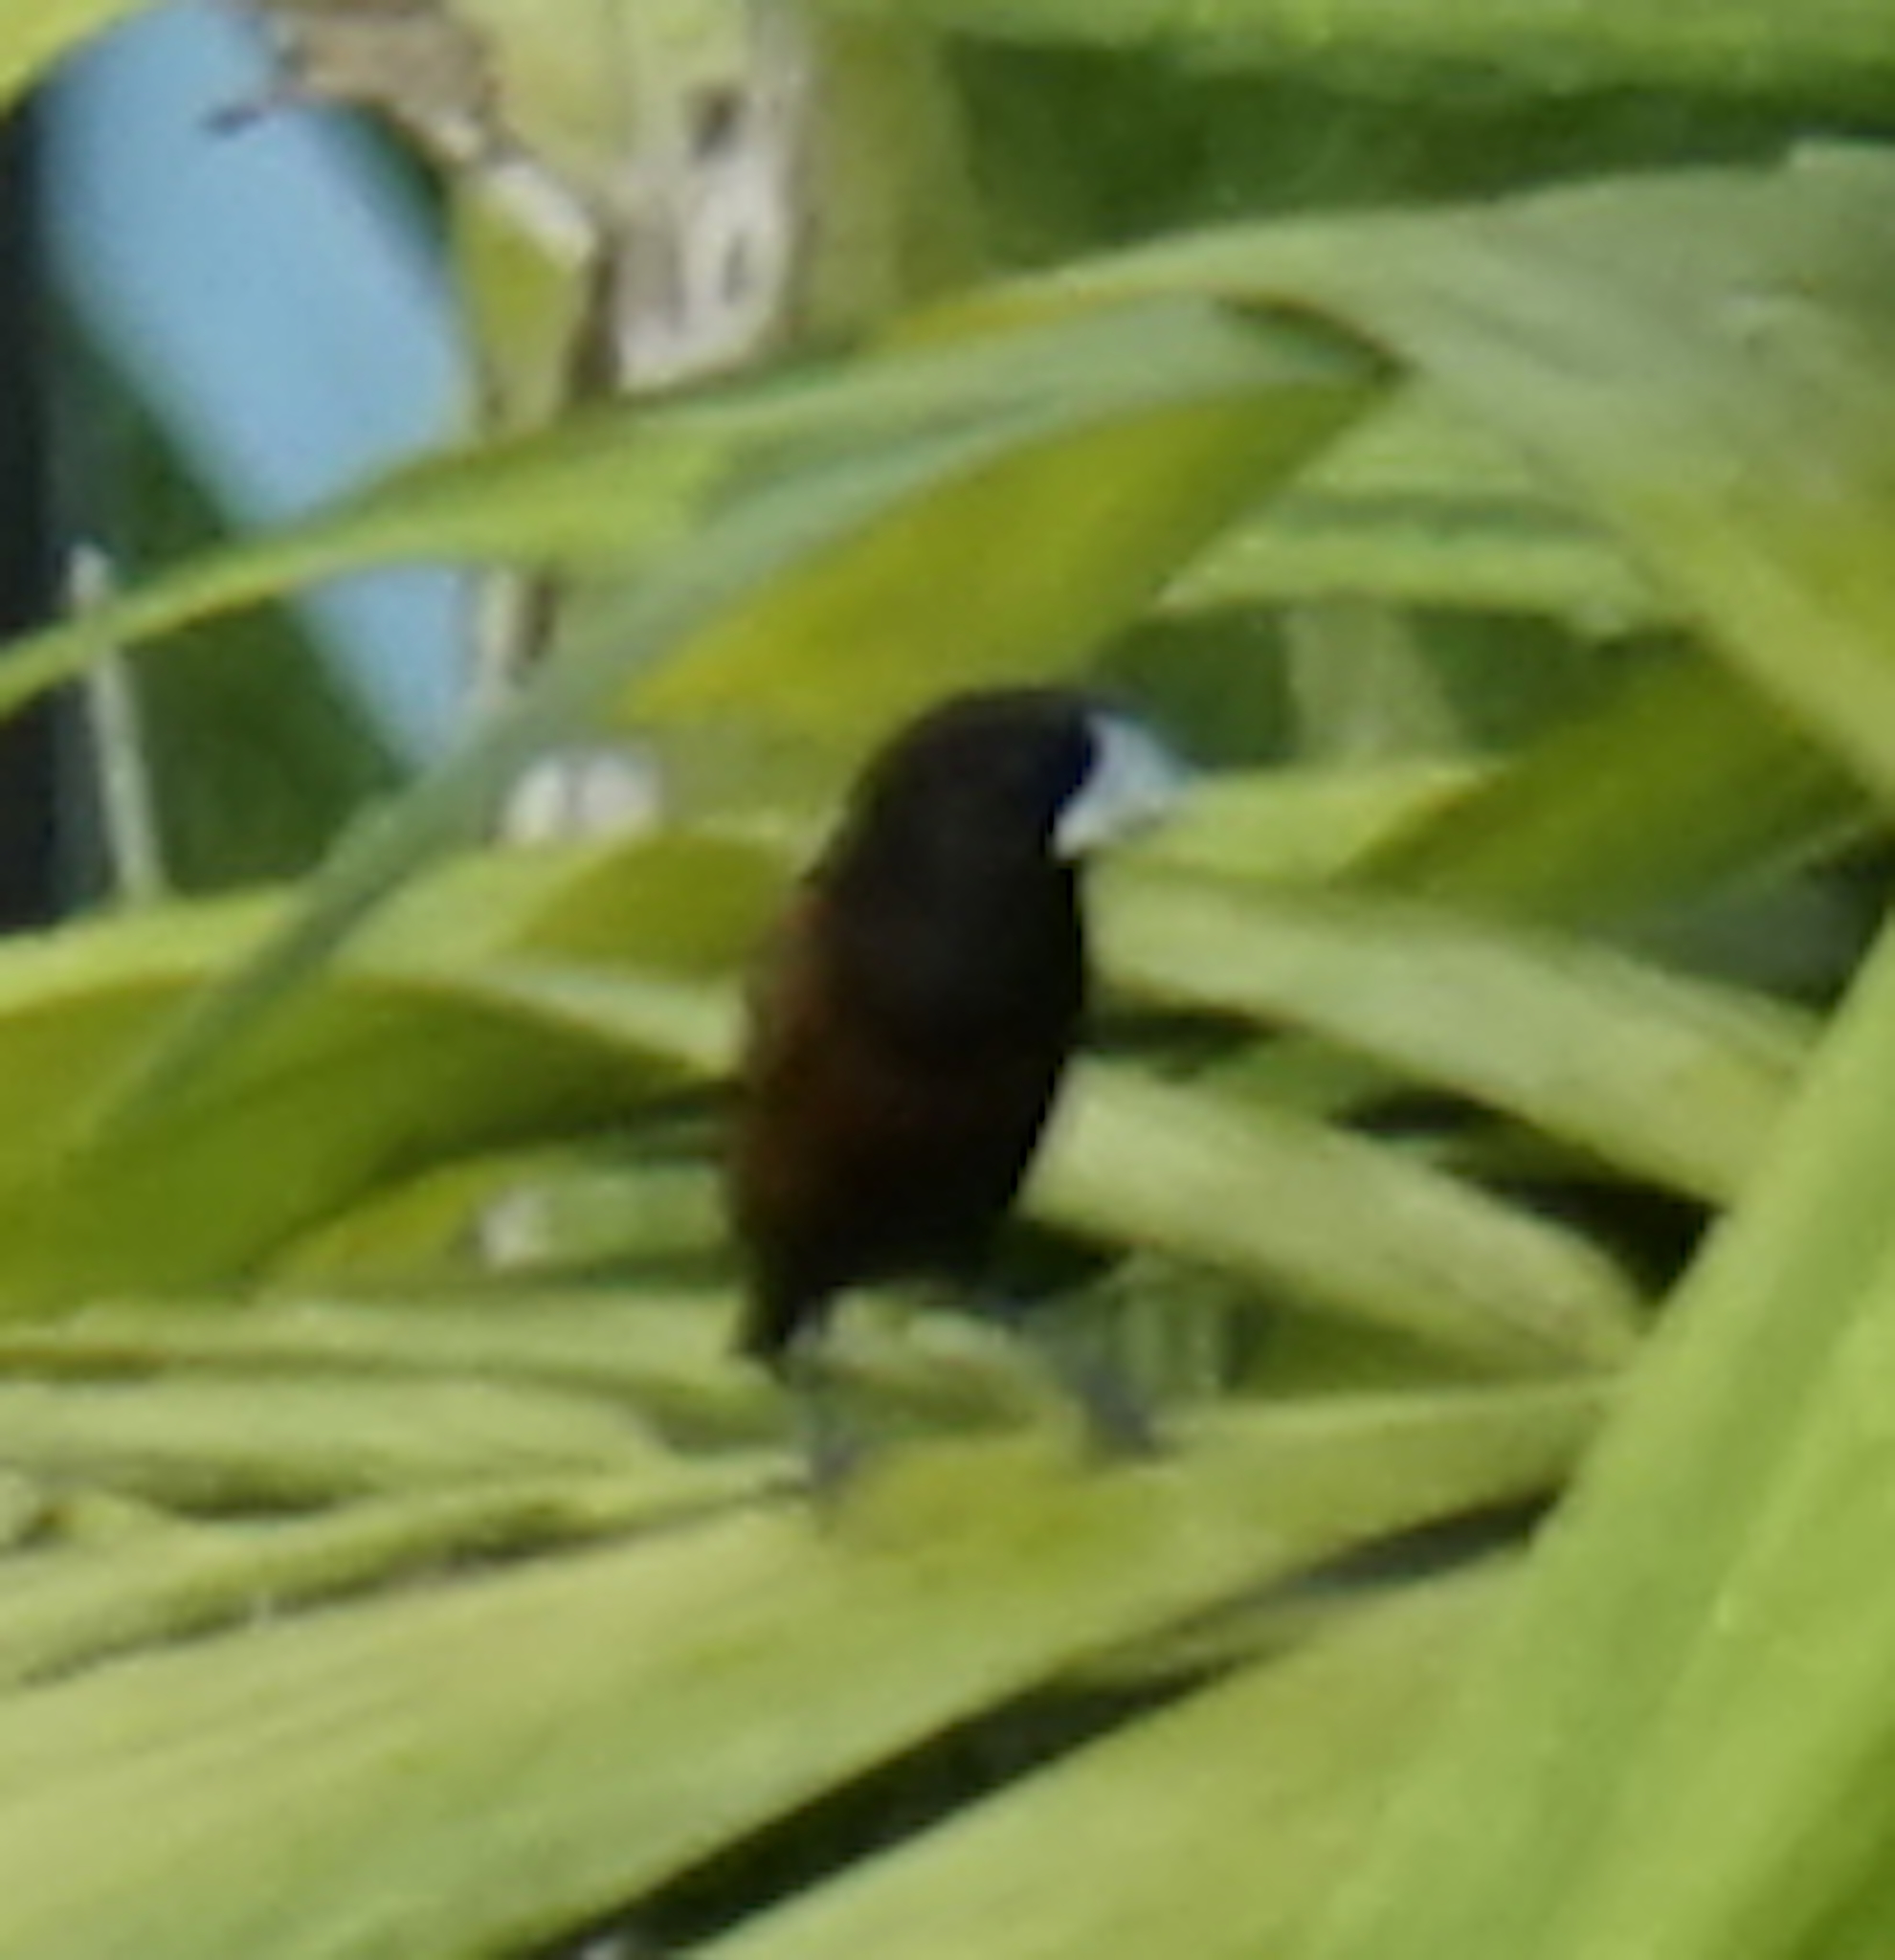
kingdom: Animalia
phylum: Chordata
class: Aves
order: Passeriformes
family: Estrildidae
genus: Lonchura
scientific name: Lonchura atricapilla
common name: Chestnut munia
